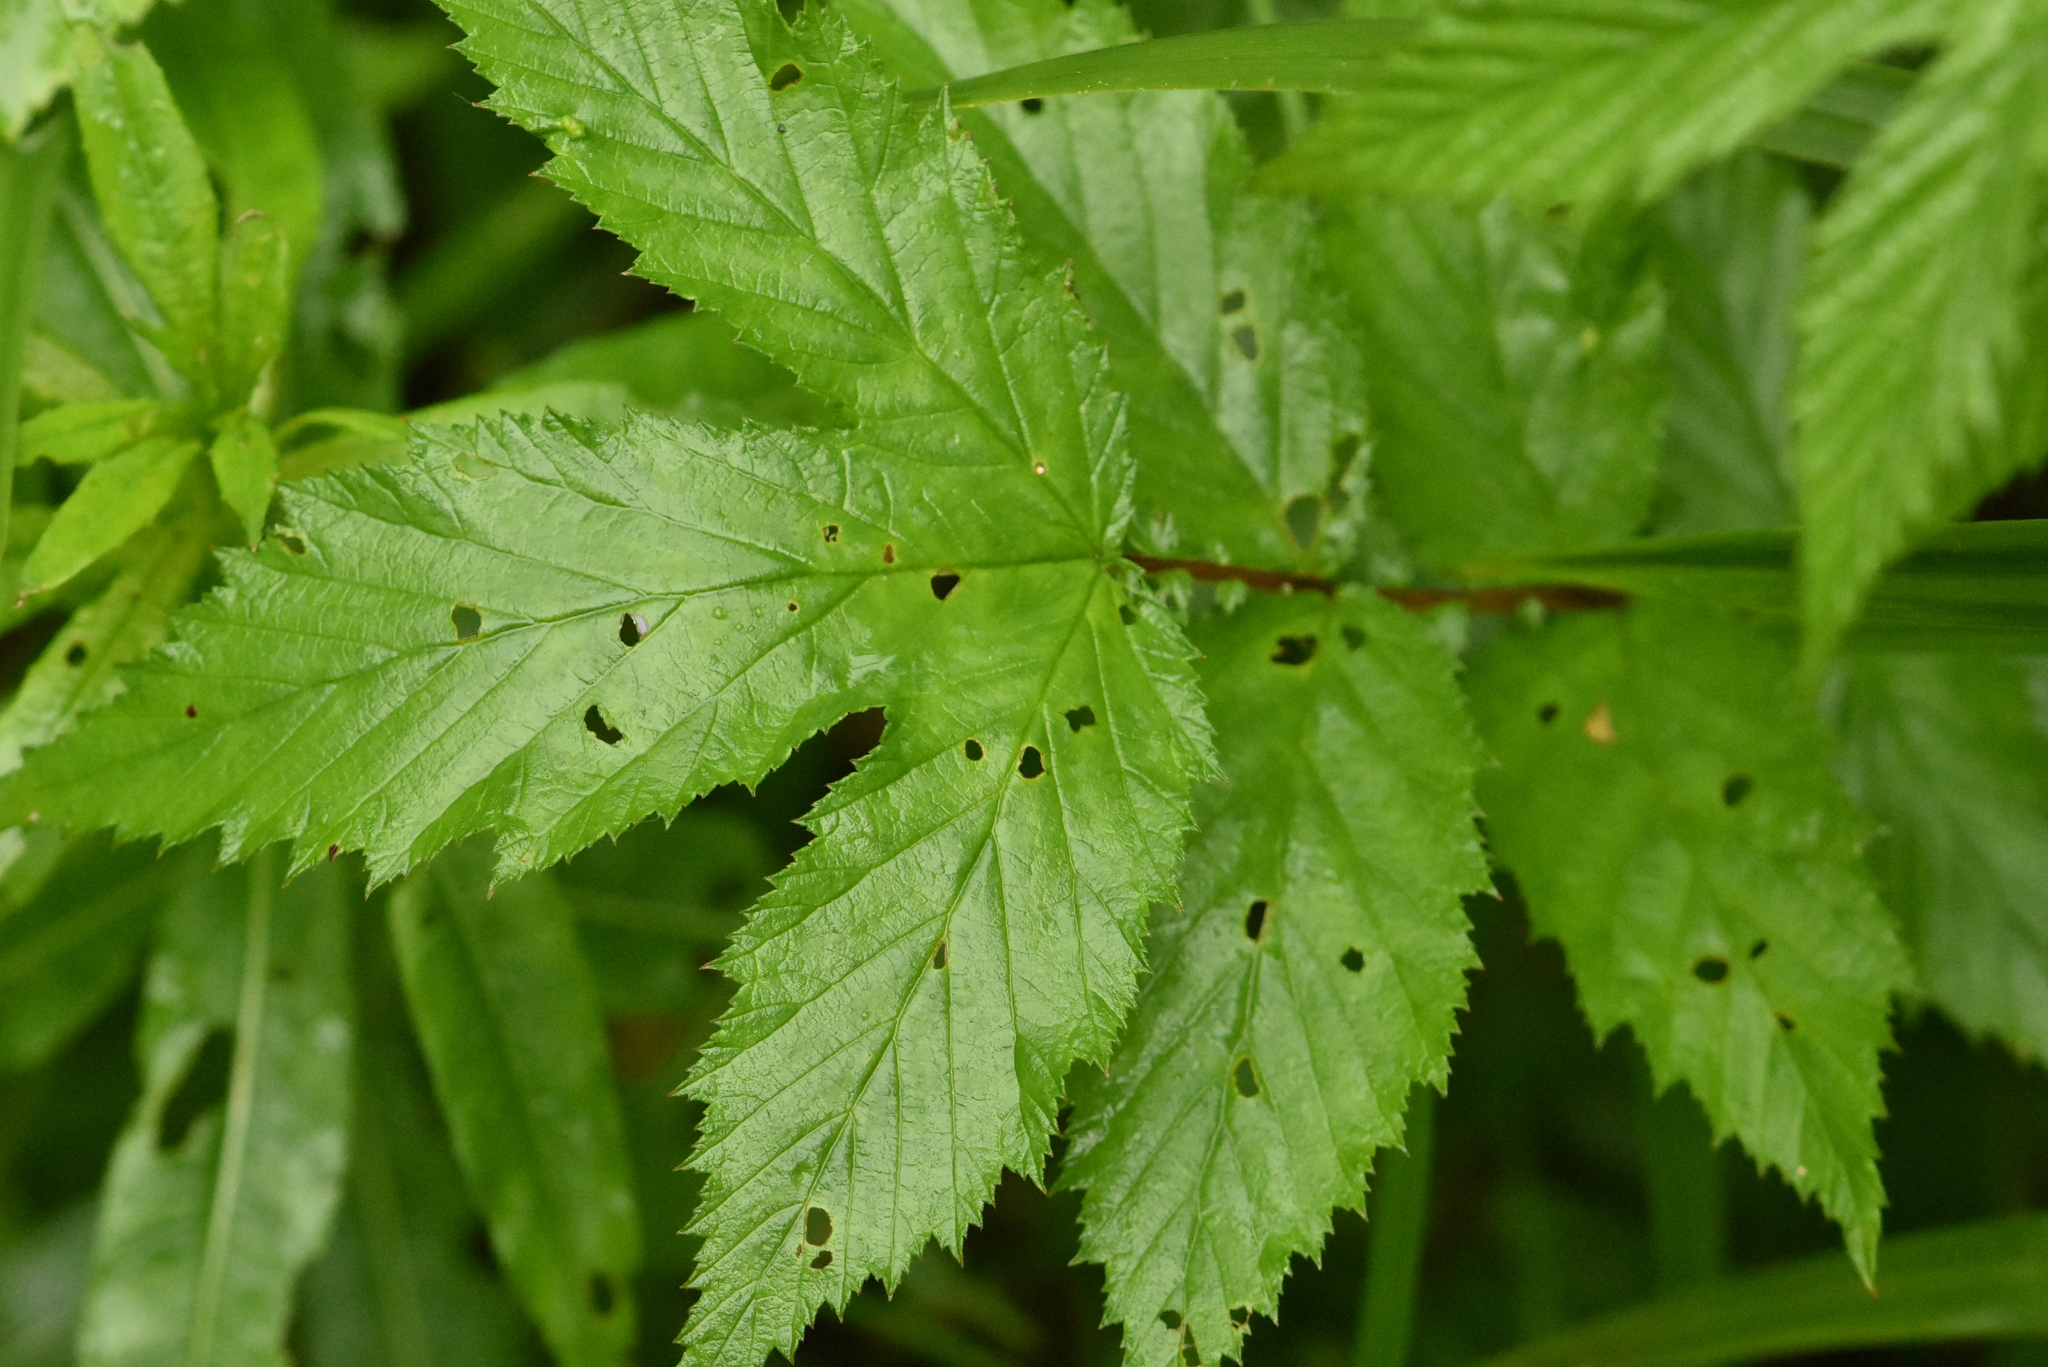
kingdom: Plantae
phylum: Tracheophyta
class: Magnoliopsida
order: Rosales
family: Rosaceae
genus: Filipendula
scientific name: Filipendula ulmaria
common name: Meadowsweet
